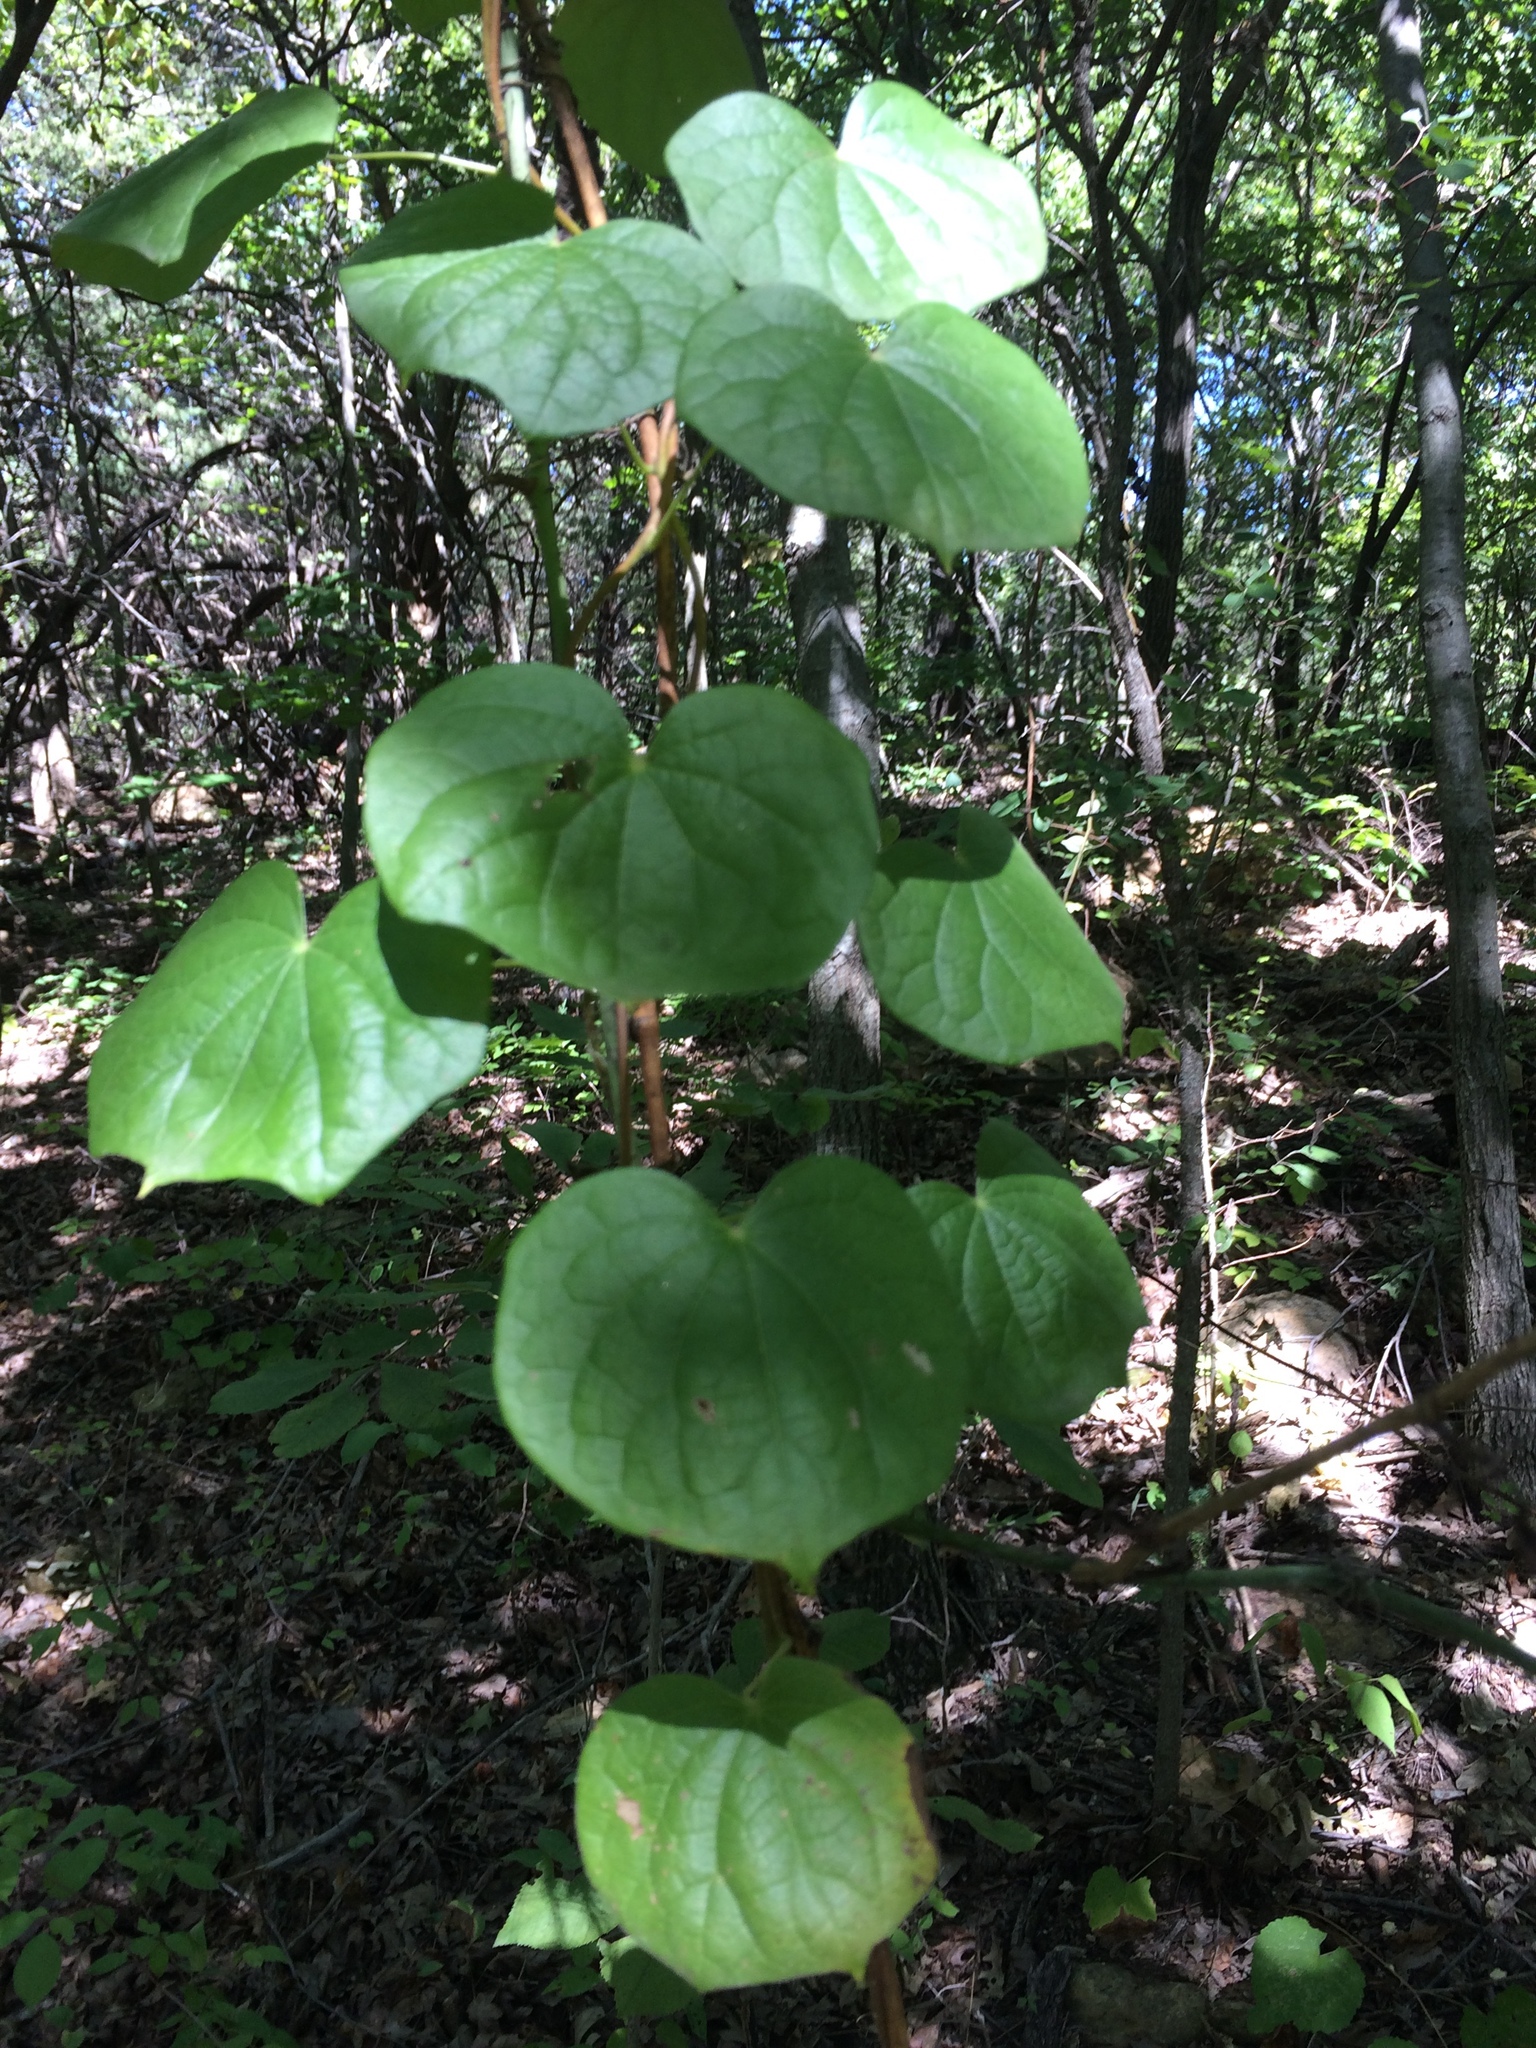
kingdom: Plantae
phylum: Tracheophyta
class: Magnoliopsida
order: Ranunculales
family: Menispermaceae
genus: Menispermum
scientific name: Menispermum canadense
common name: Moonseed
